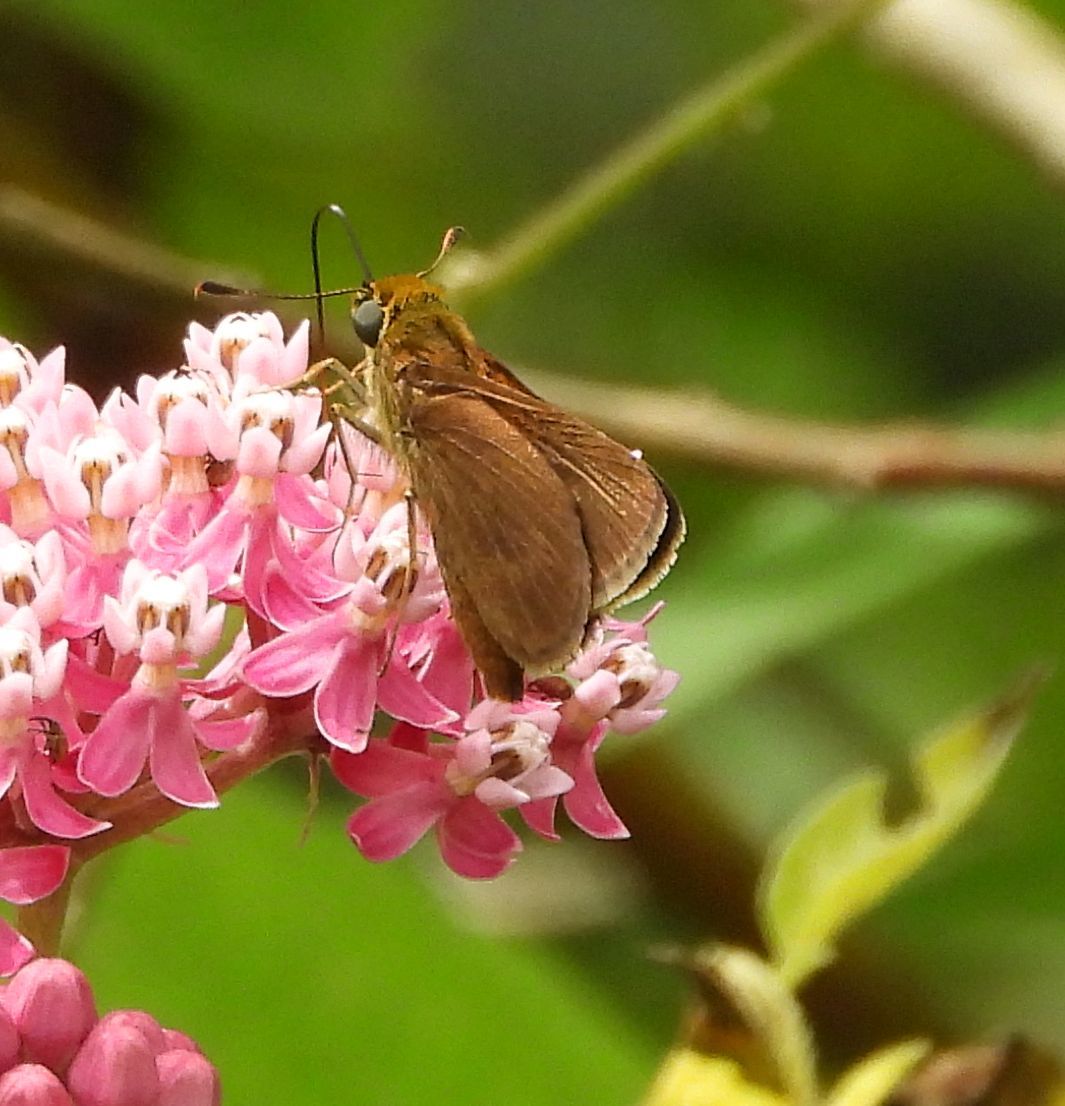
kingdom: Animalia
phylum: Arthropoda
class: Insecta
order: Lepidoptera
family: Hesperiidae
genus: Euphyes
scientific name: Euphyes vestris
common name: Dun skipper
